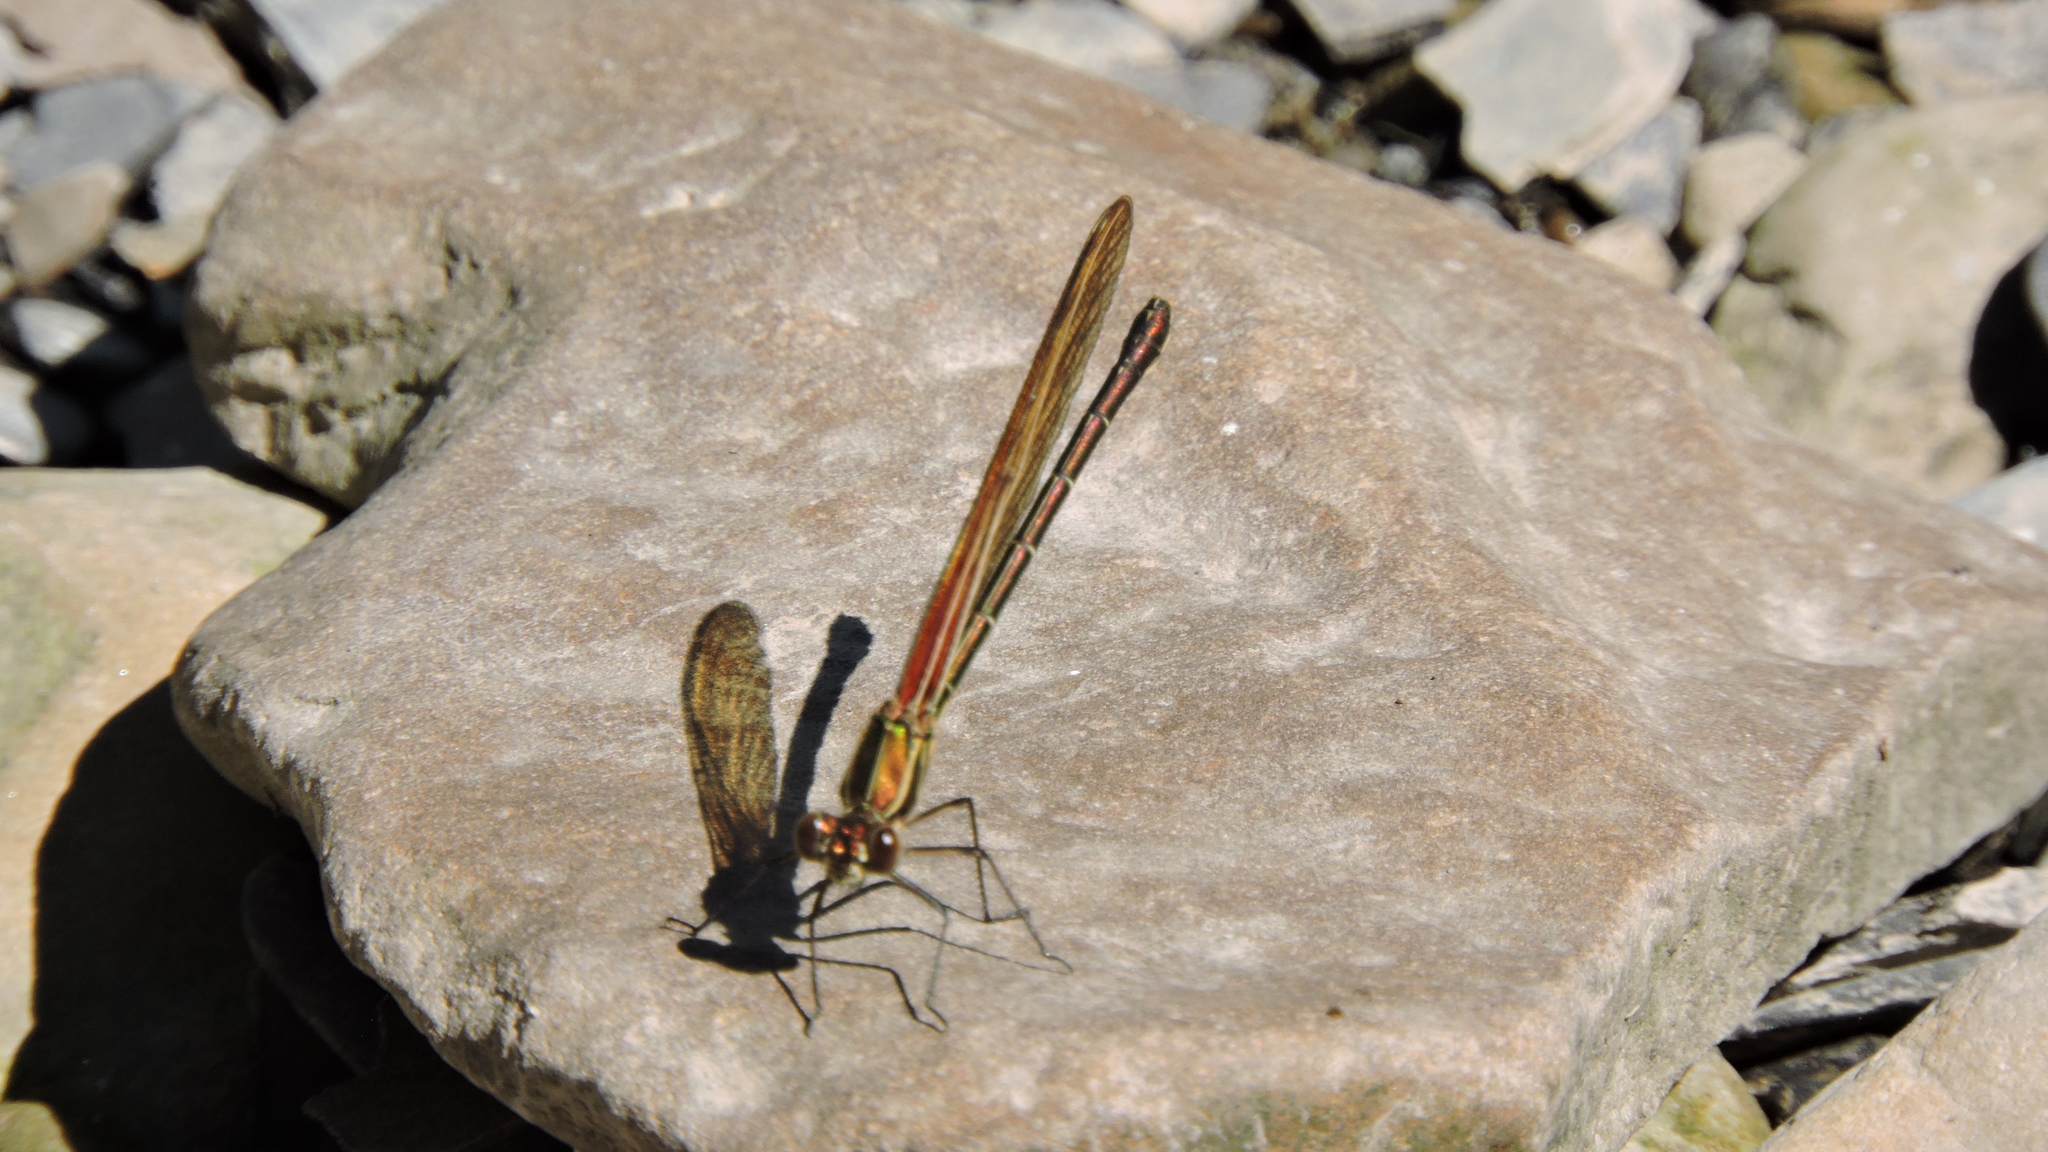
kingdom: Animalia
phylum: Arthropoda
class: Insecta
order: Odonata
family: Calopterygidae
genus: Hetaerina
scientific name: Hetaerina americana
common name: American rubyspot
